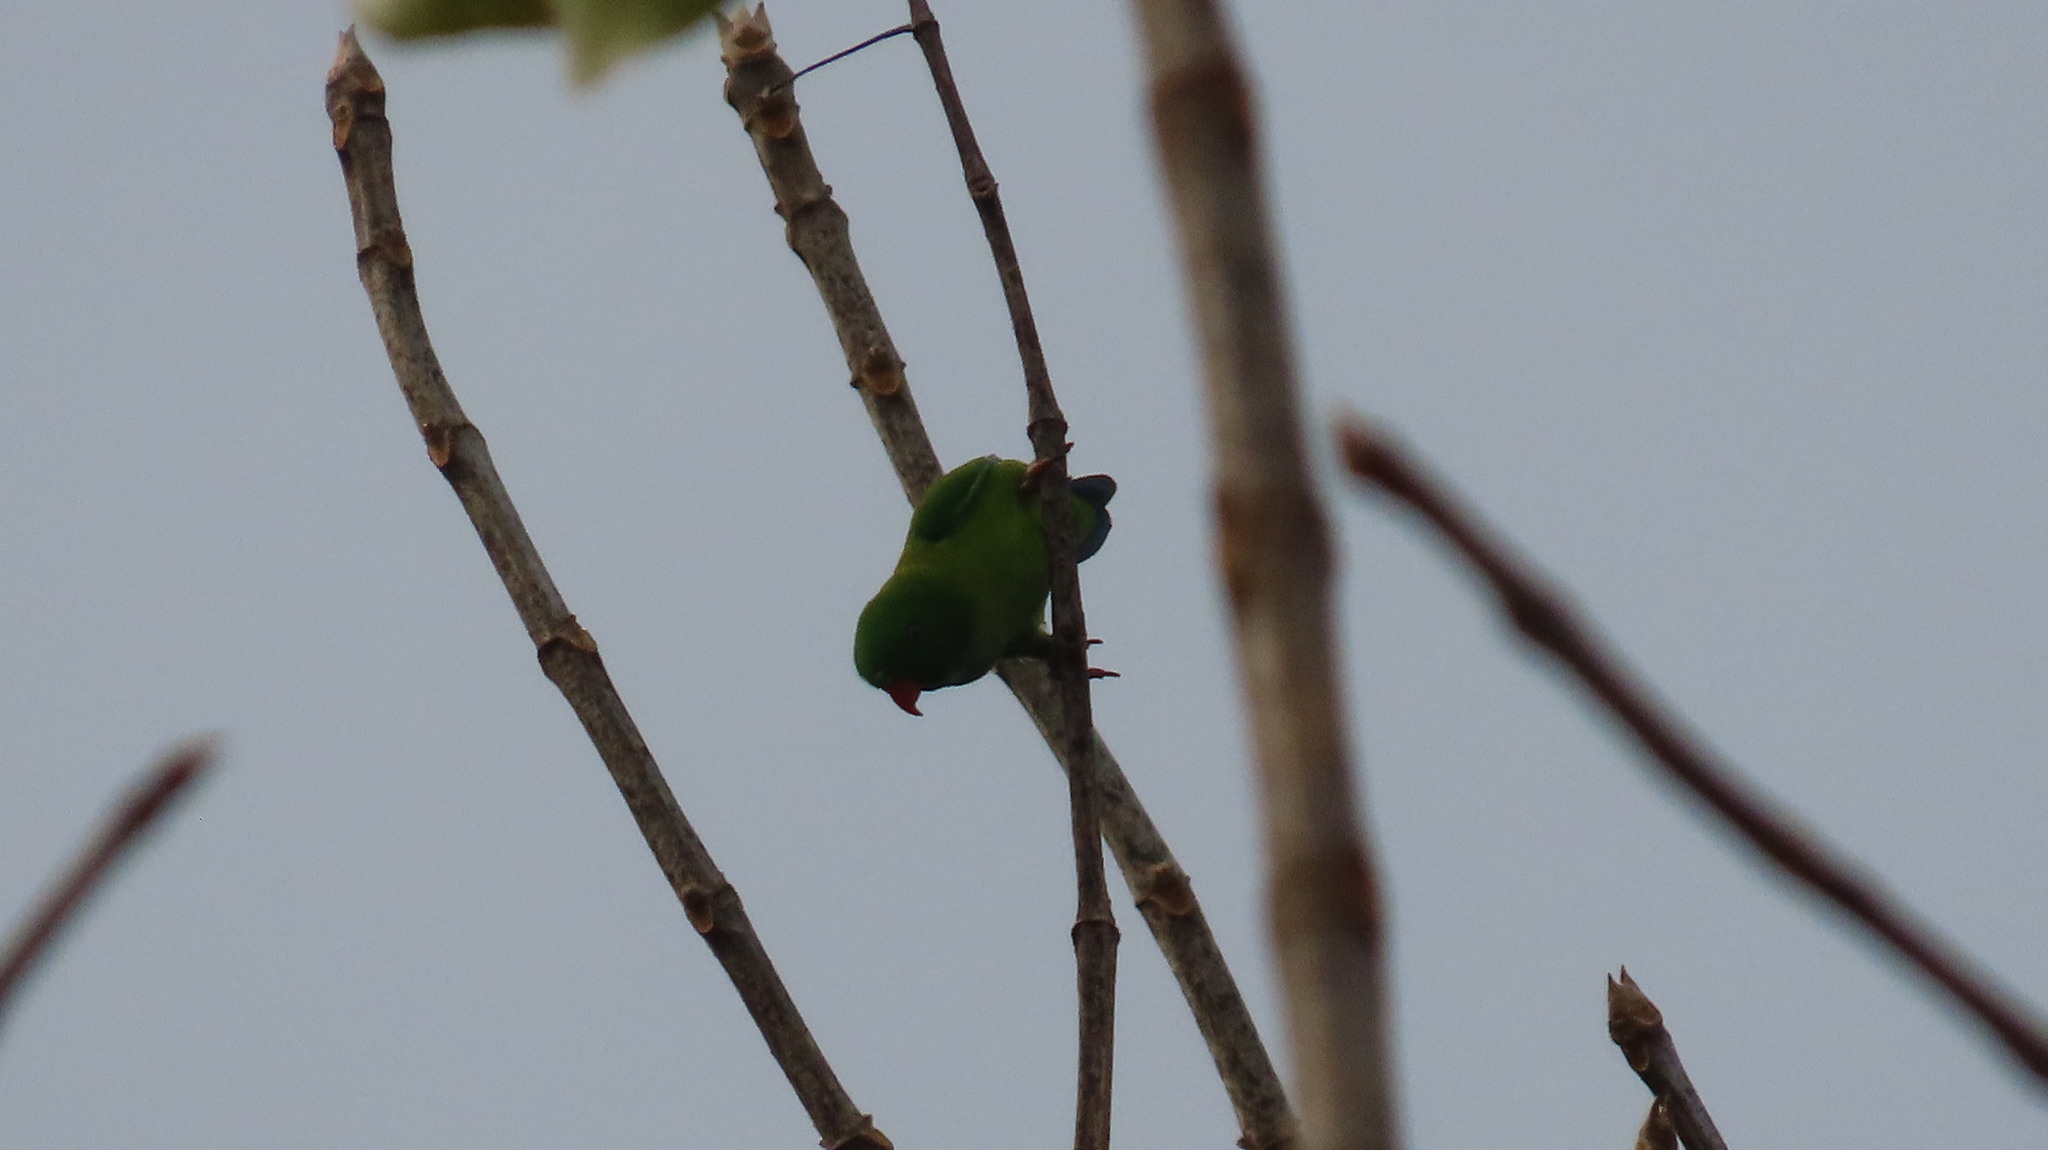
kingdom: Animalia
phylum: Chordata
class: Aves
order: Psittaciformes
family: Psittacidae
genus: Loriculus
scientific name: Loriculus vernalis
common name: Vernal hanging parrot
